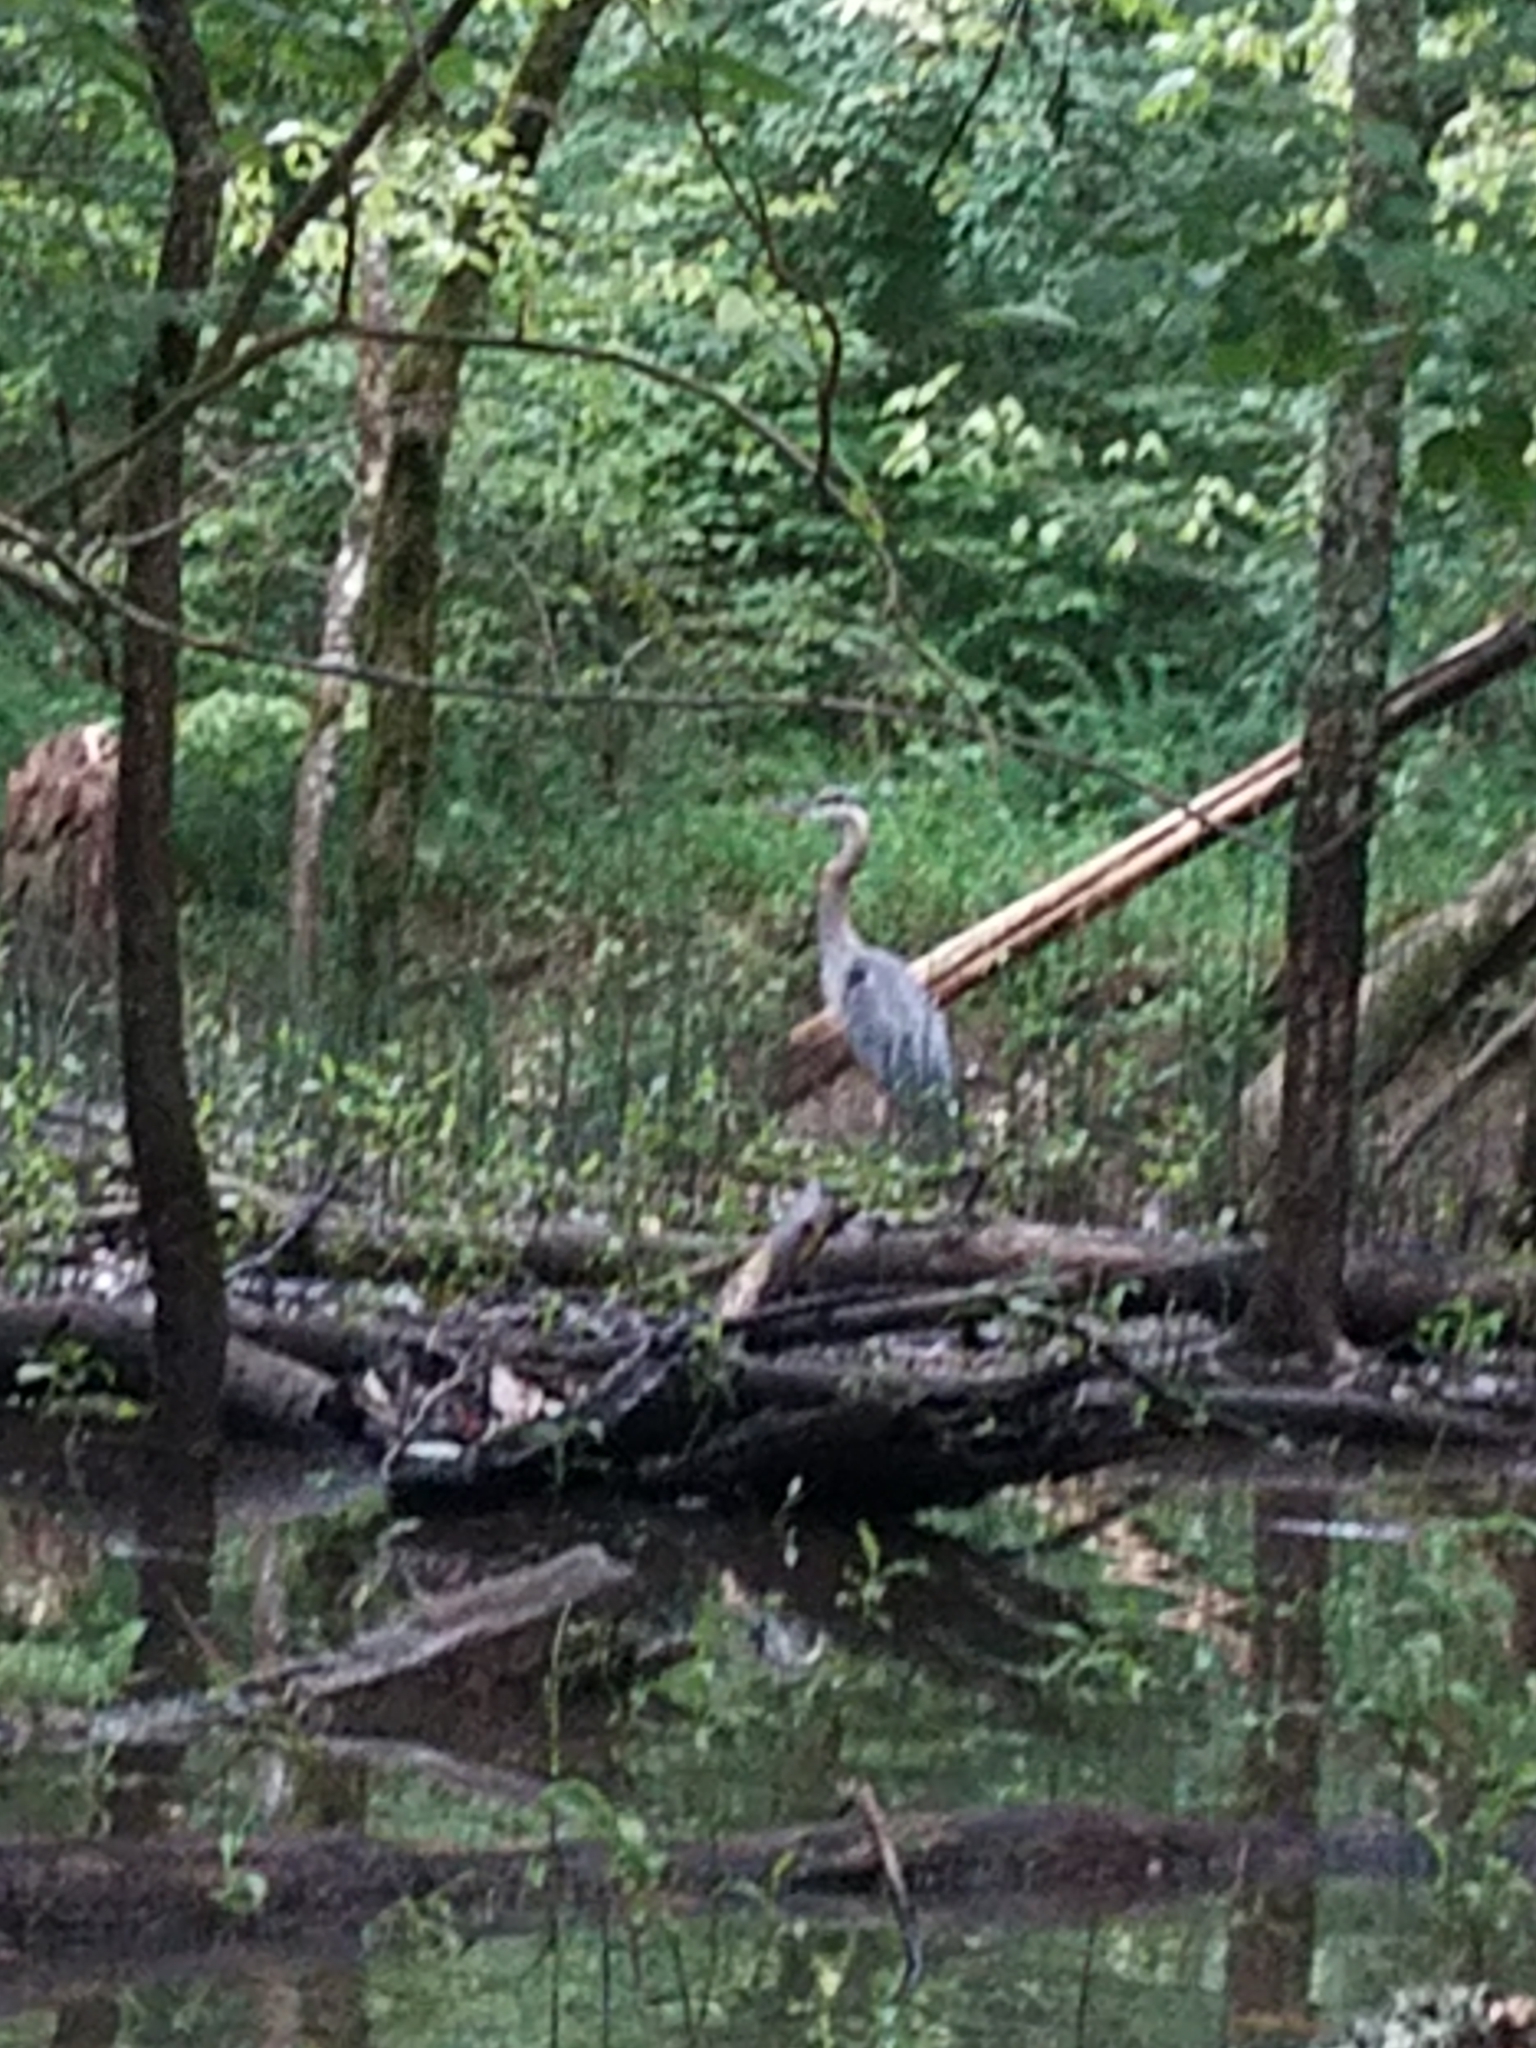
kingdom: Animalia
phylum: Chordata
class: Aves
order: Pelecaniformes
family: Ardeidae
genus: Ardea
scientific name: Ardea herodias
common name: Great blue heron
